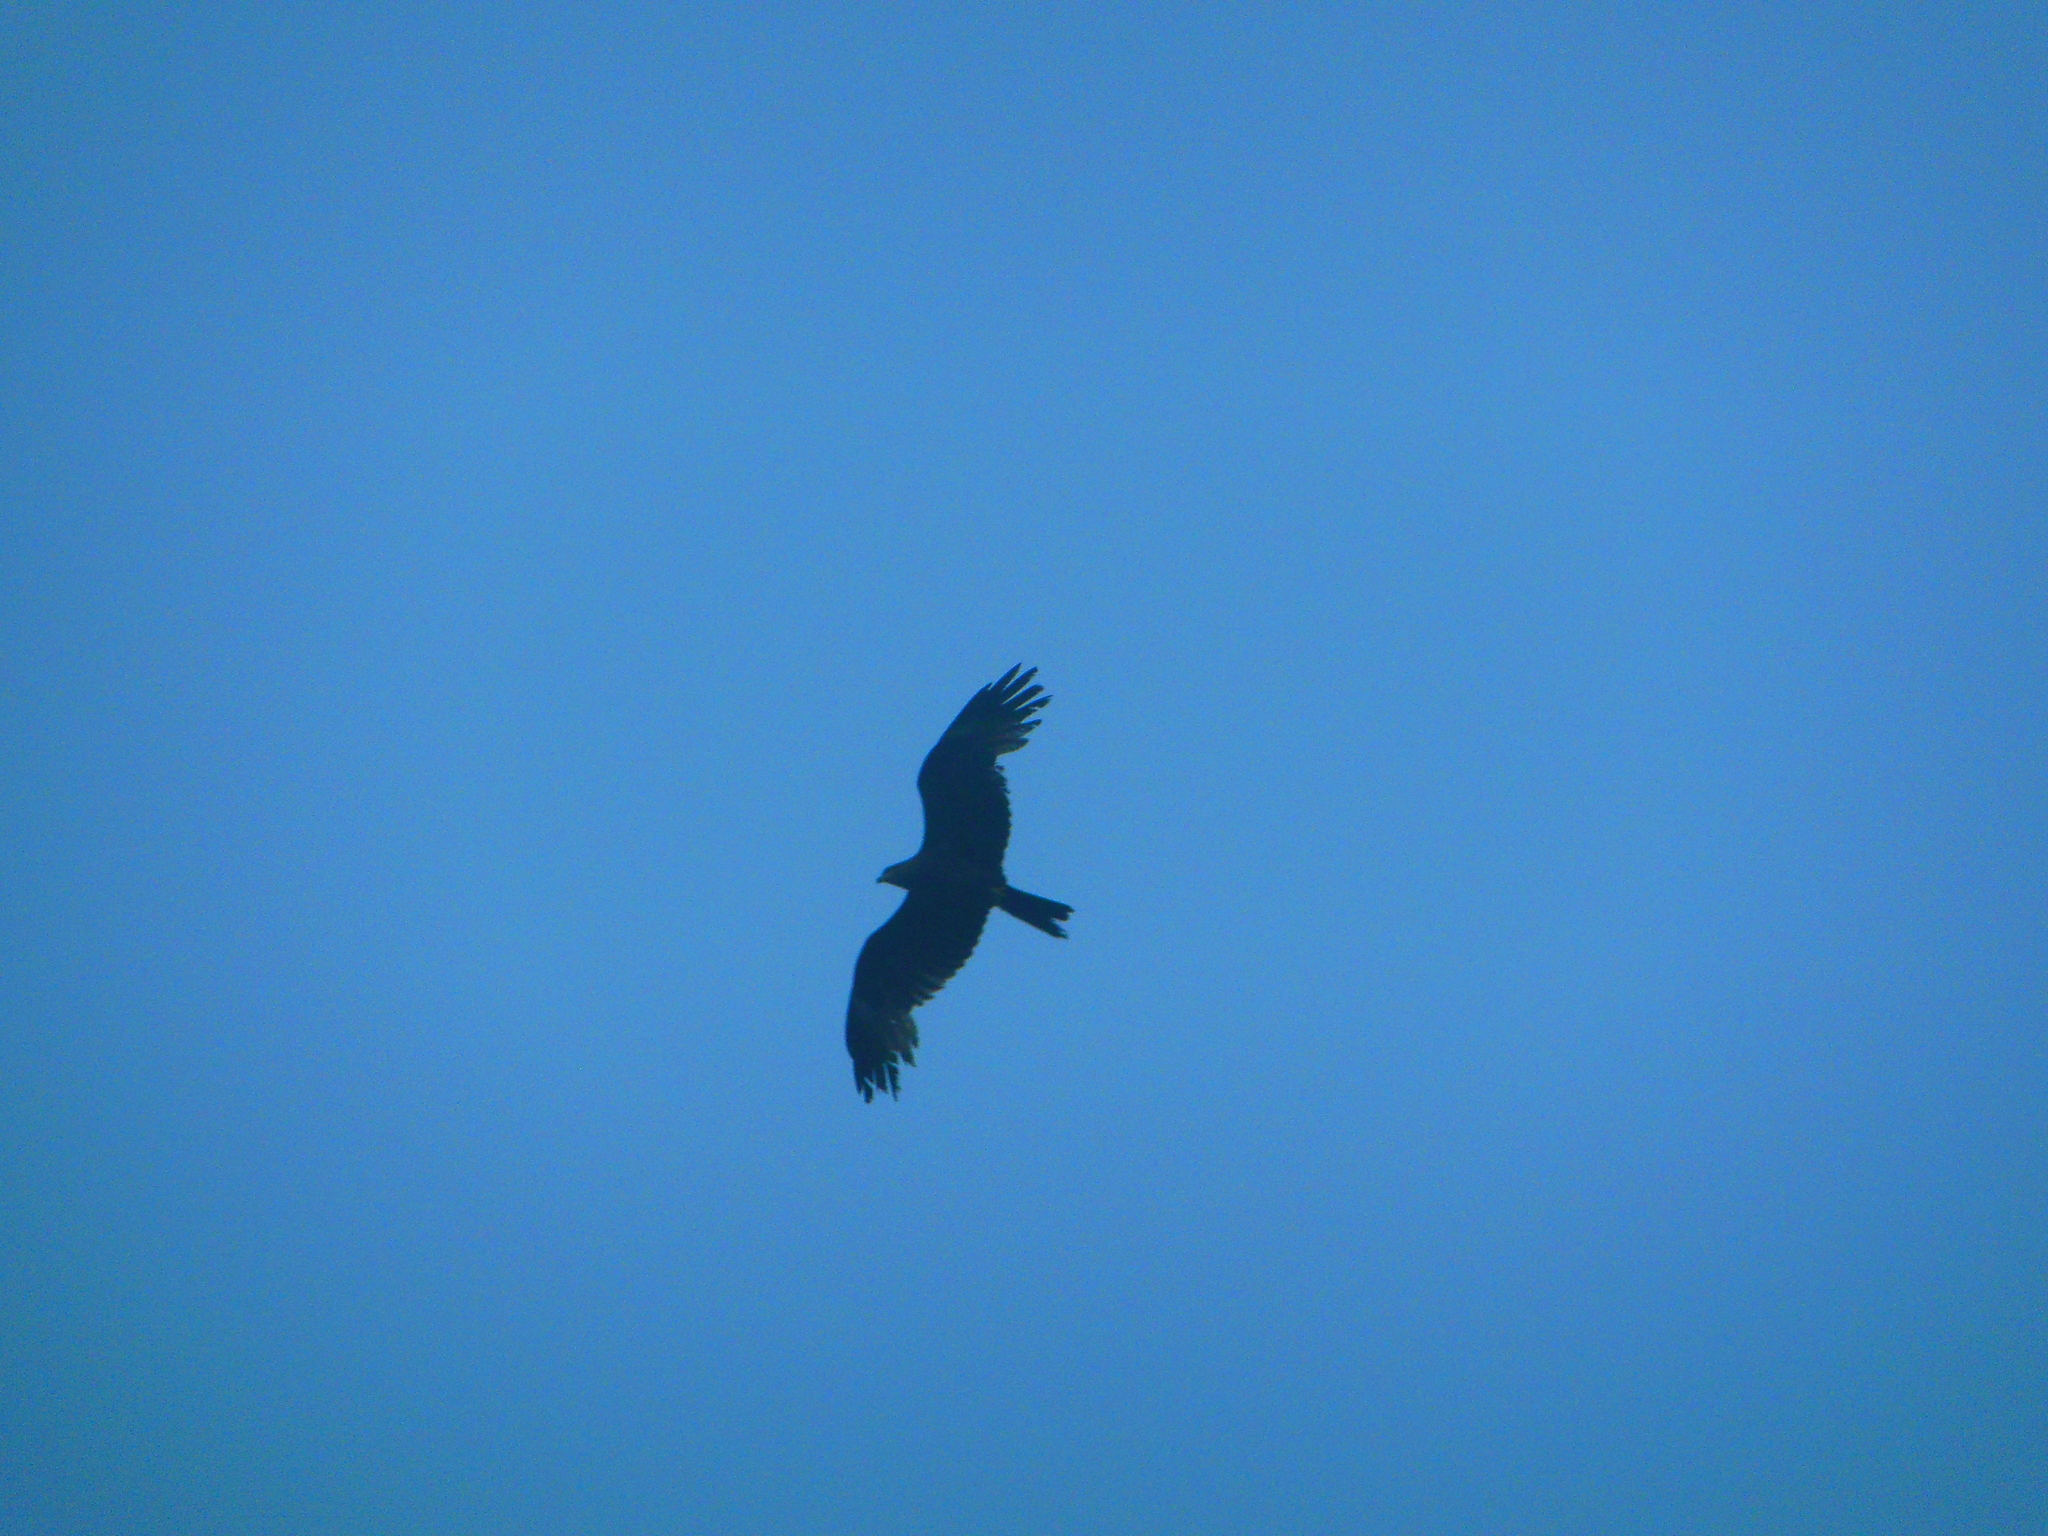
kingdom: Animalia
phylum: Chordata
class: Aves
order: Accipitriformes
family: Accipitridae
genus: Milvus
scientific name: Milvus migrans
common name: Black kite
